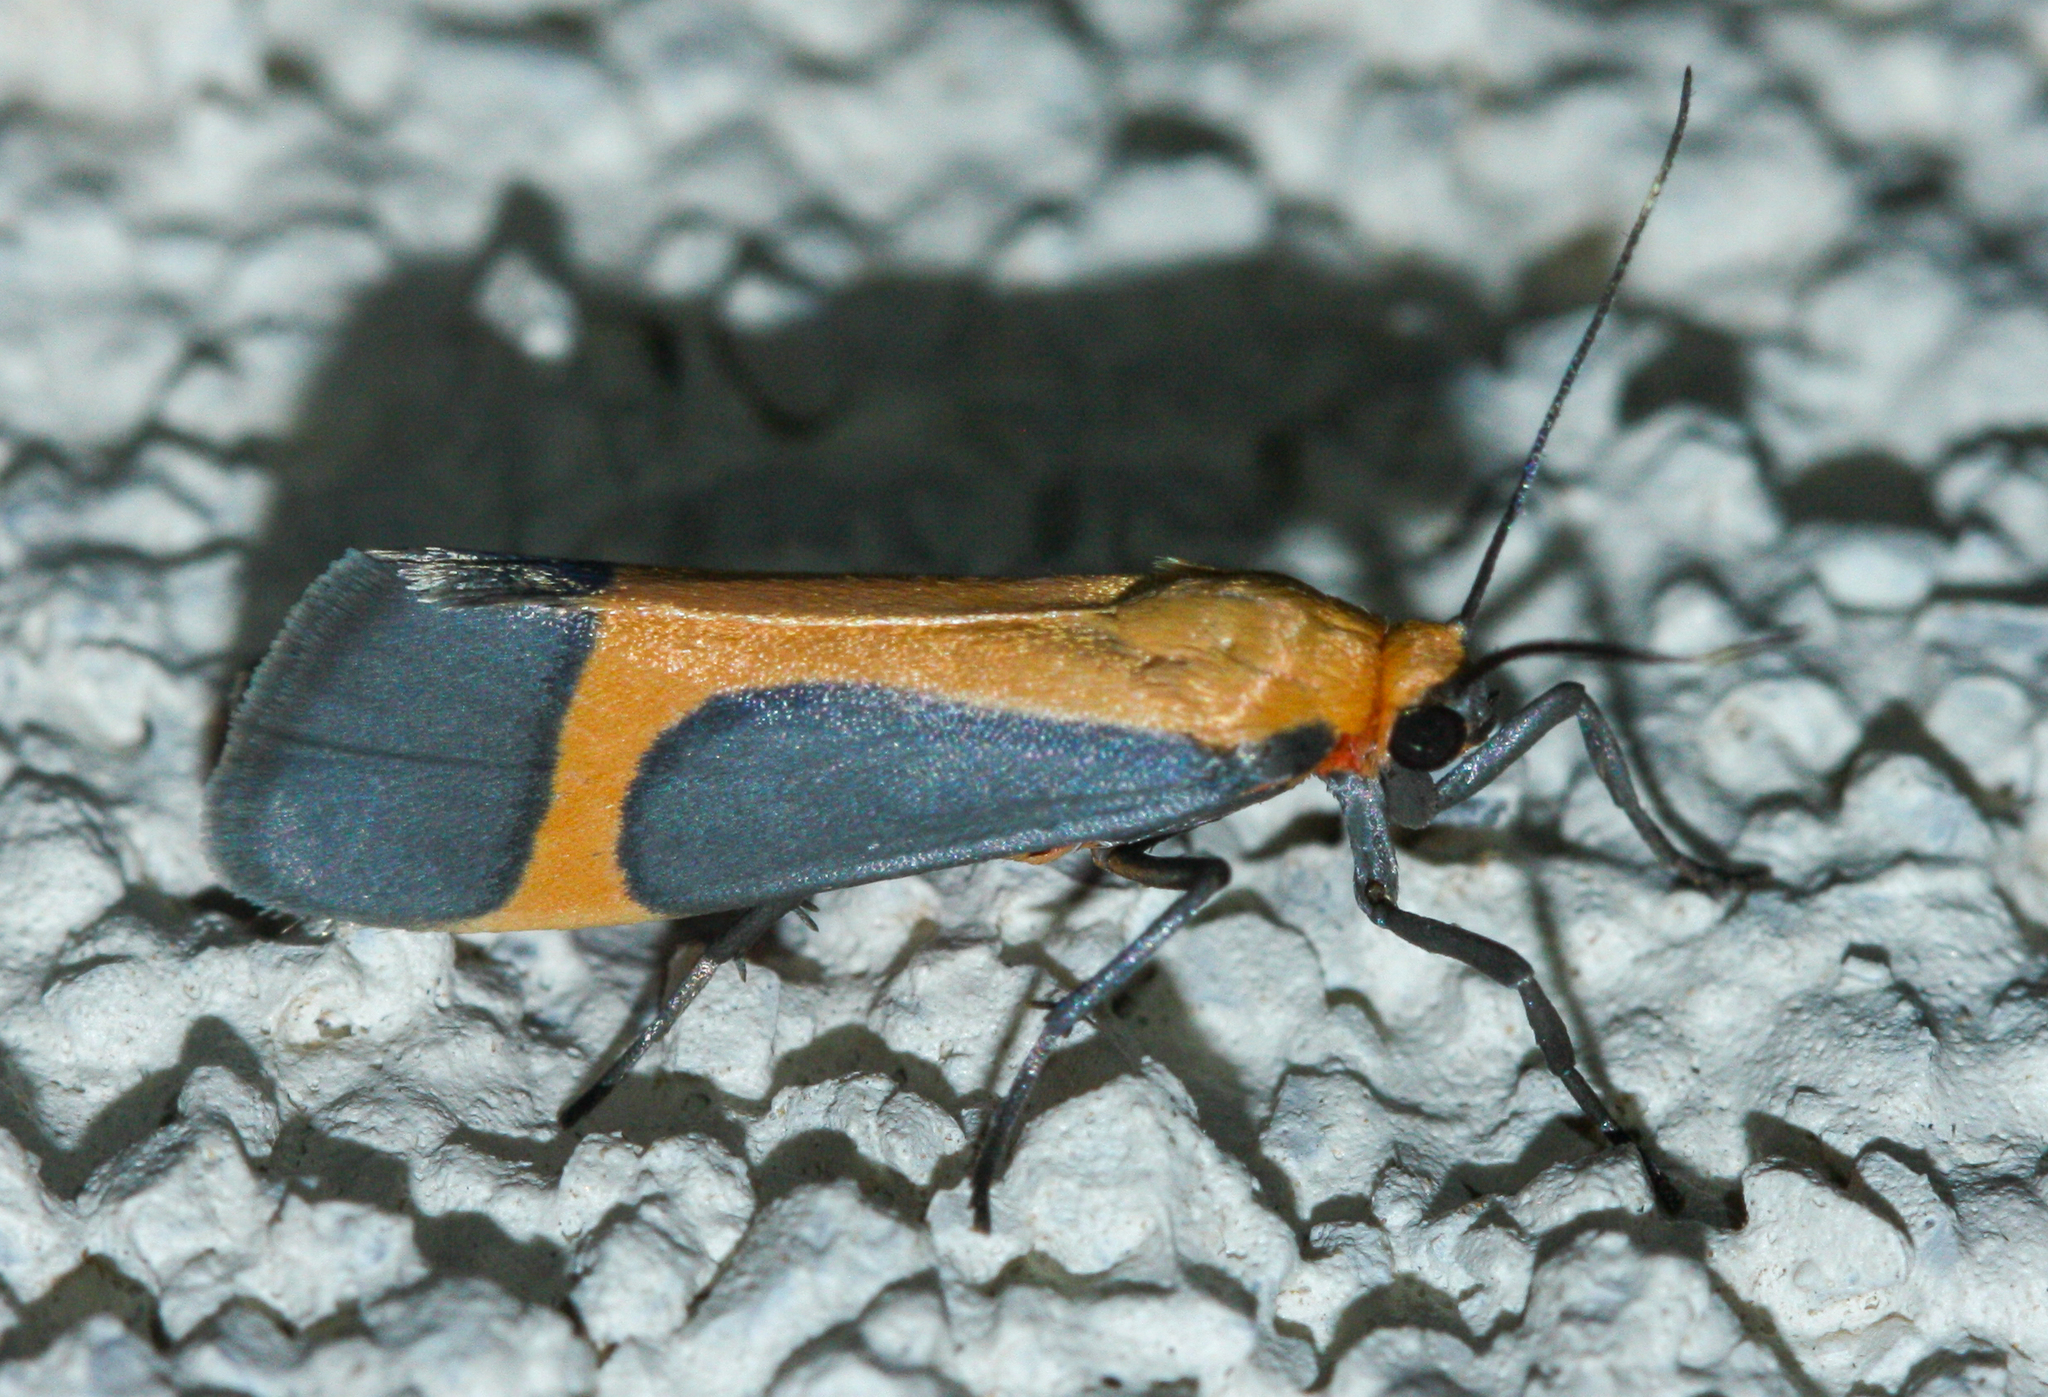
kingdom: Animalia
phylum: Arthropoda
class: Insecta
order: Lepidoptera
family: Erebidae
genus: Cisthene
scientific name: Cisthene angelus
